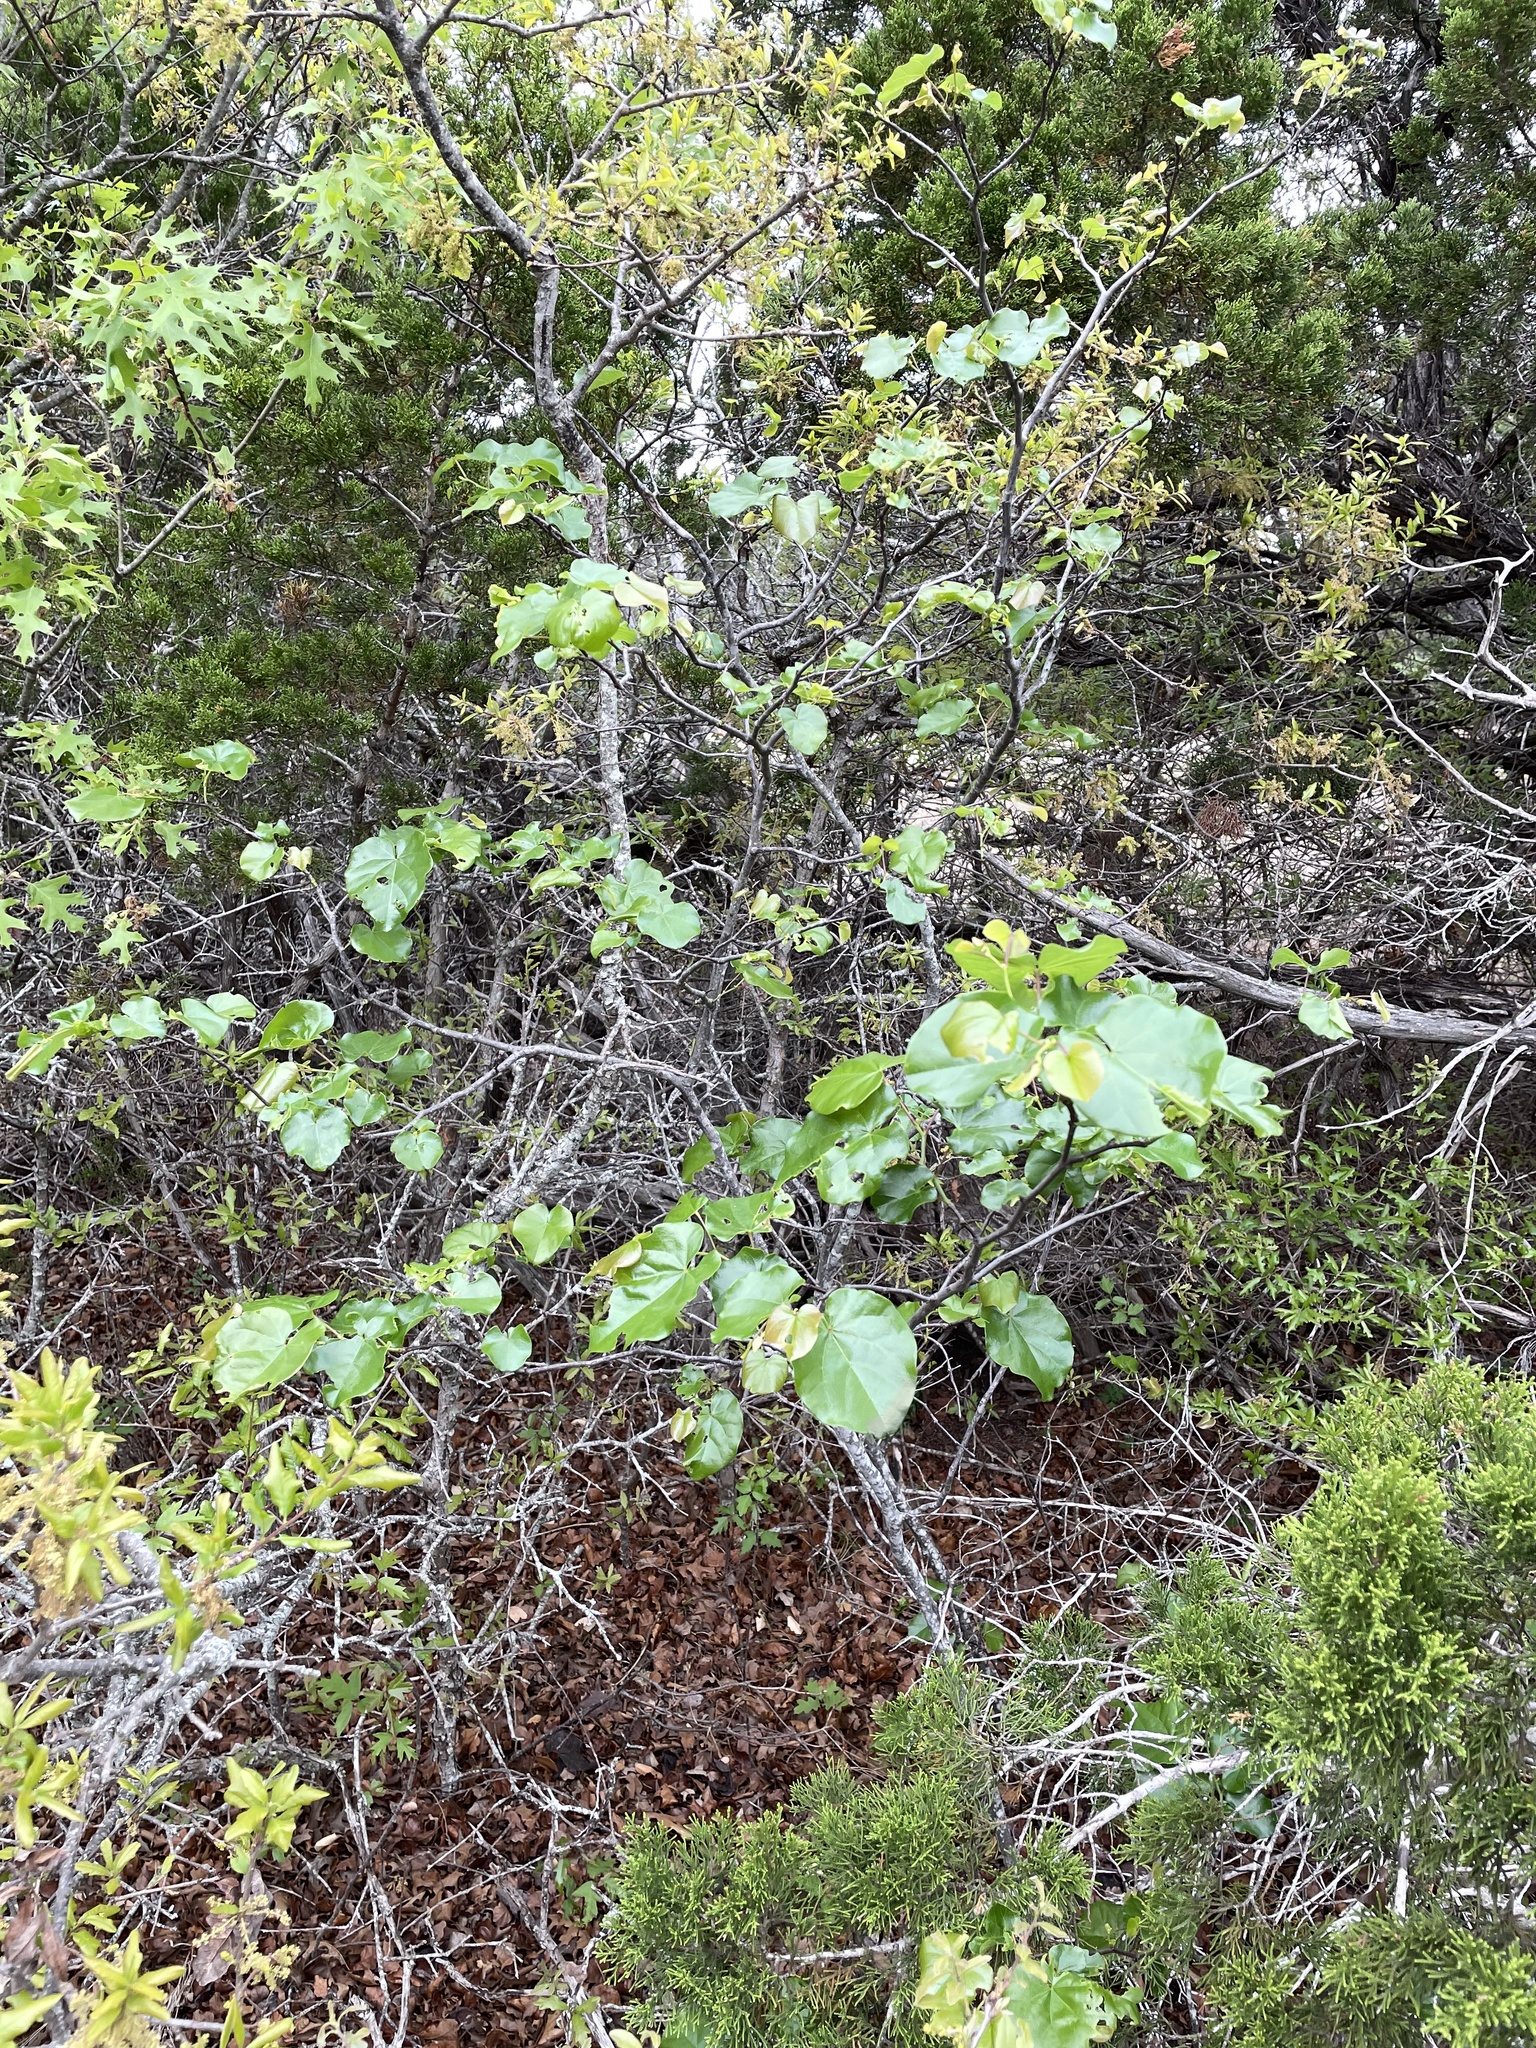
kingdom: Plantae
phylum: Tracheophyta
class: Magnoliopsida
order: Fabales
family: Fabaceae
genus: Cercis
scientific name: Cercis canadensis
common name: Eastern redbud
